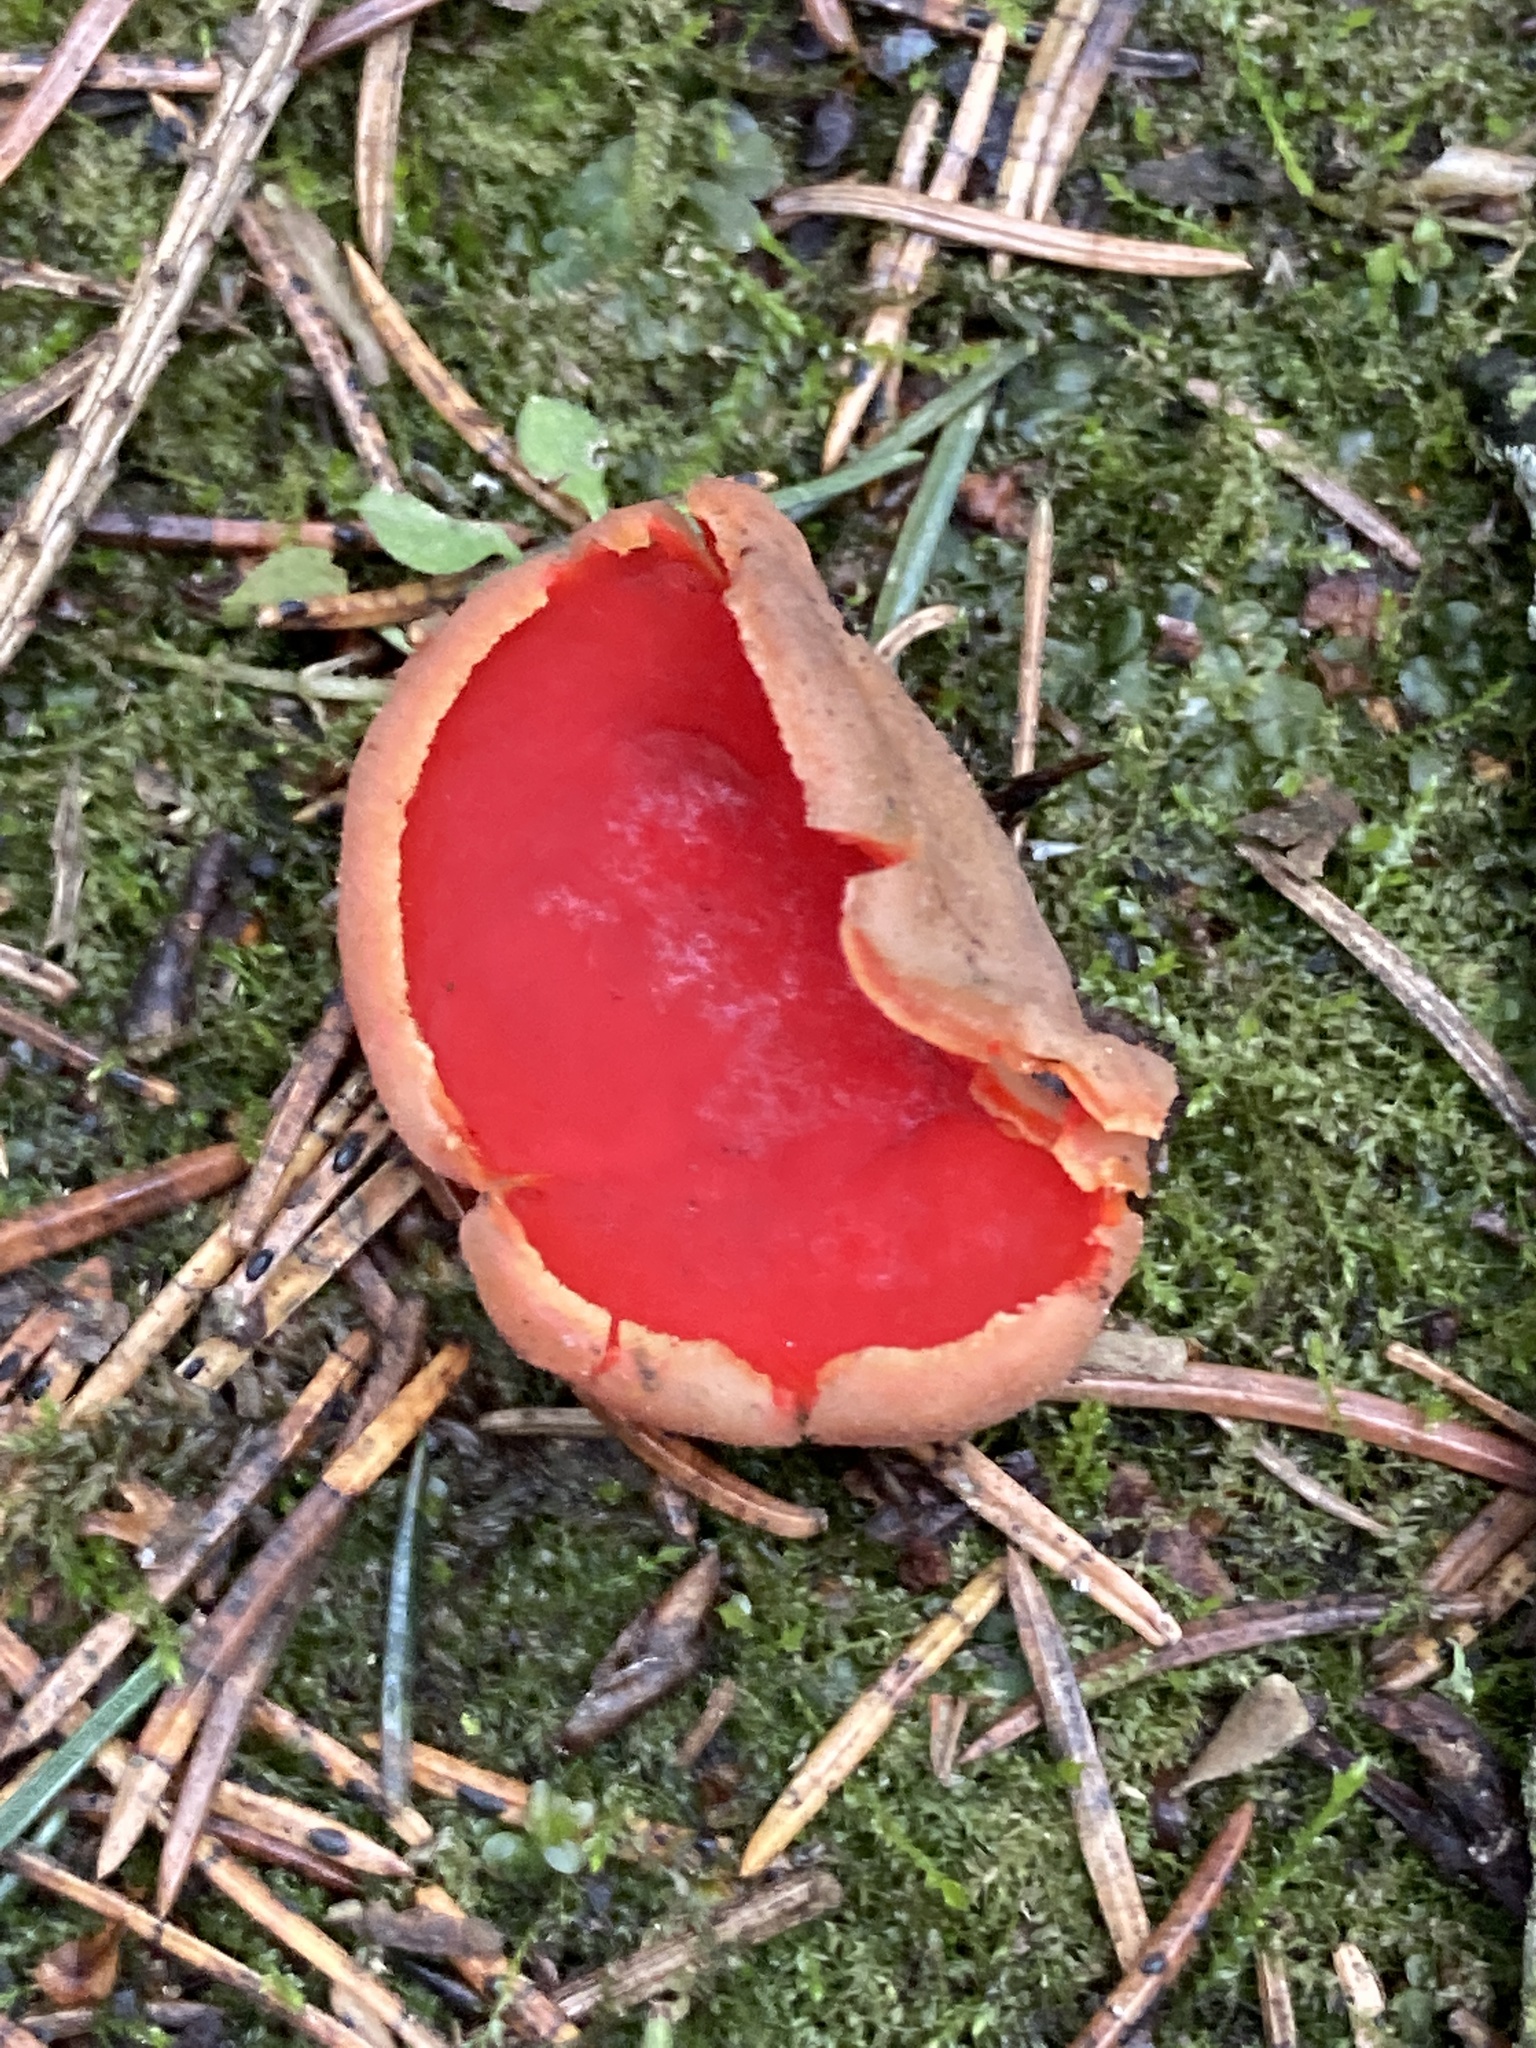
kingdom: Fungi
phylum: Ascomycota
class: Pezizomycetes
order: Pezizales
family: Sarcoscyphaceae
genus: Sarcoscypha
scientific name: Sarcoscypha austriaca
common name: Scarlet elfcup
